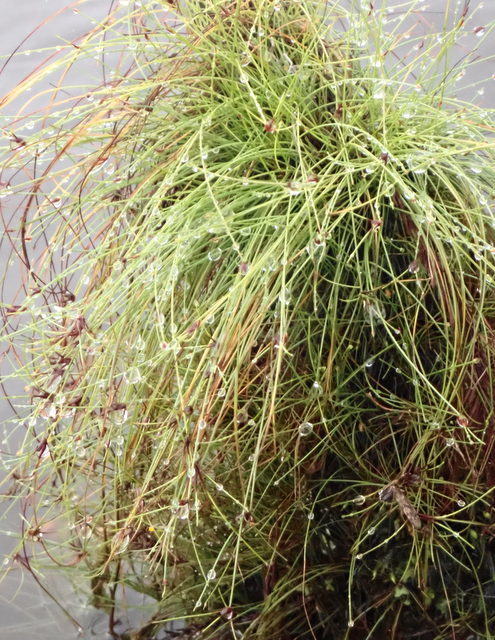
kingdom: Plantae
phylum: Tracheophyta
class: Liliopsida
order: Poales
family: Cyperaceae
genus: Eleocharis
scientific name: Eleocharis baldwinii
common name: Baldwin's spike-rush
